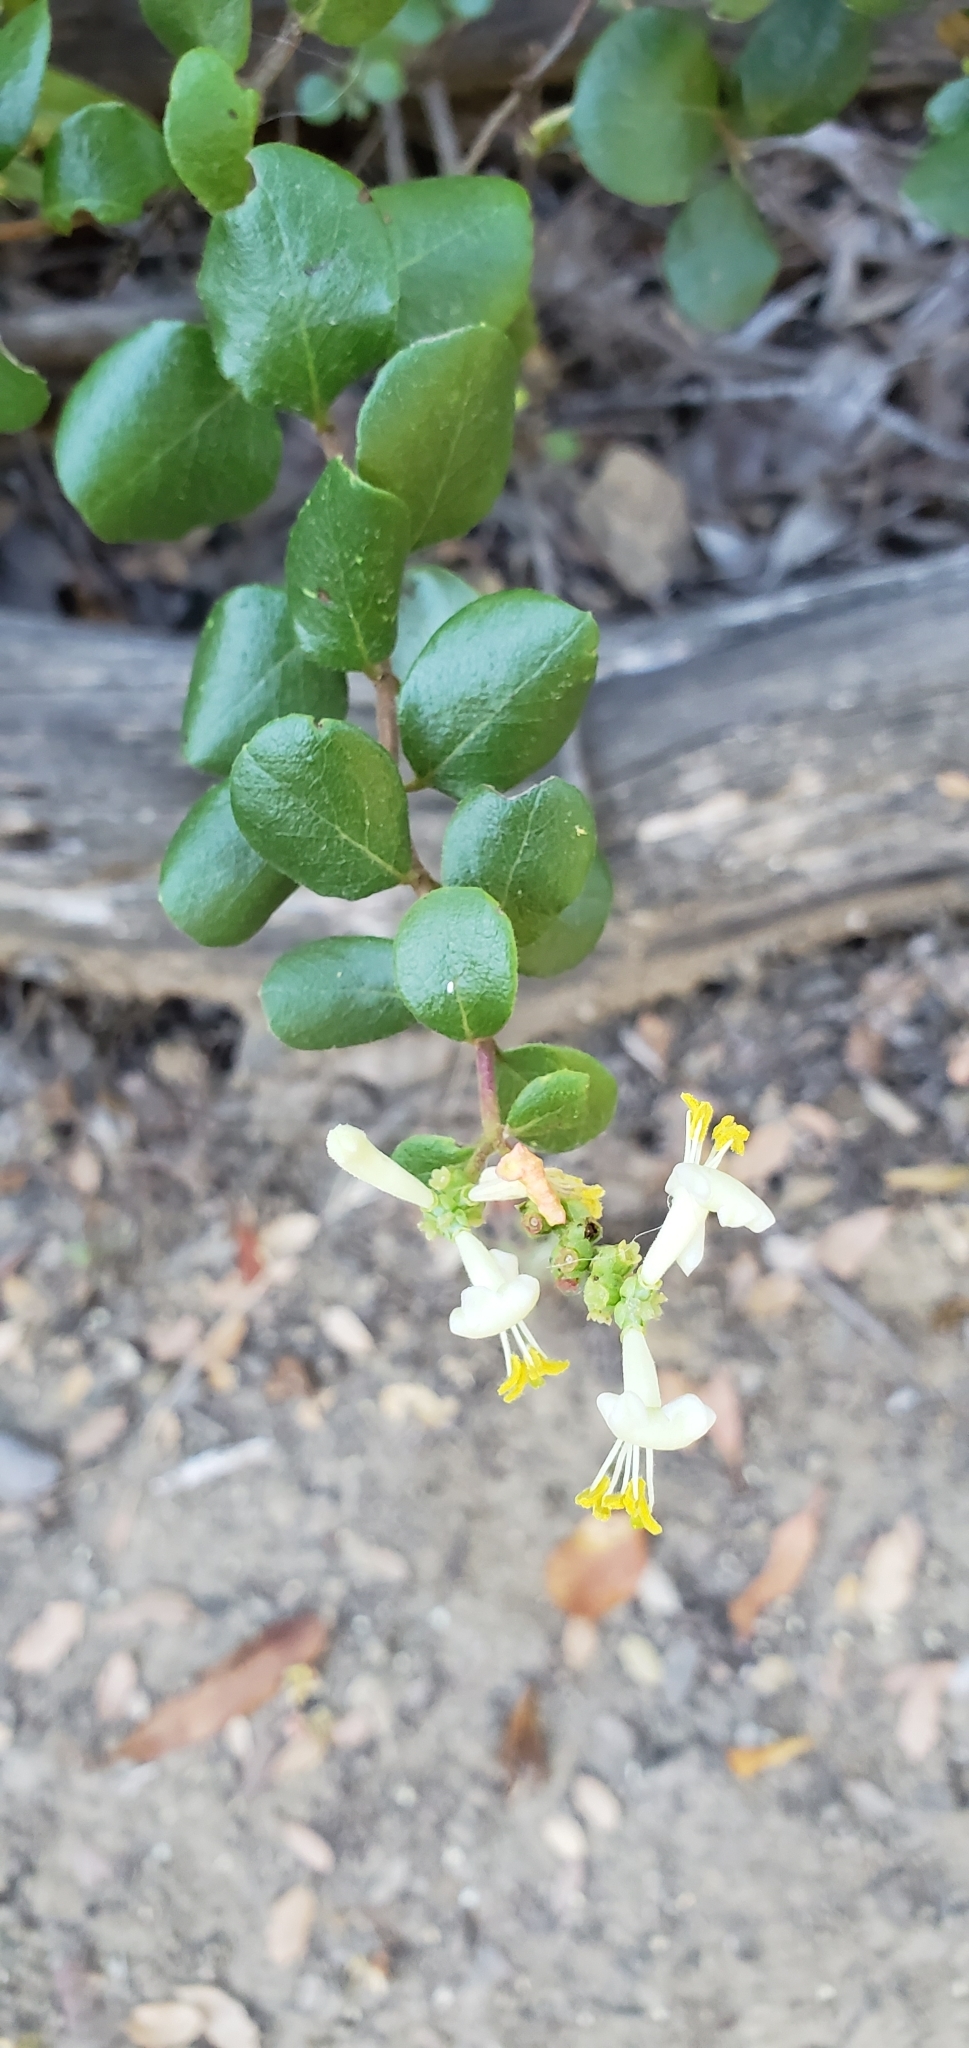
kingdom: Plantae
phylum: Tracheophyta
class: Magnoliopsida
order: Dipsacales
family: Caprifoliaceae
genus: Lonicera
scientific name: Lonicera subspicata
